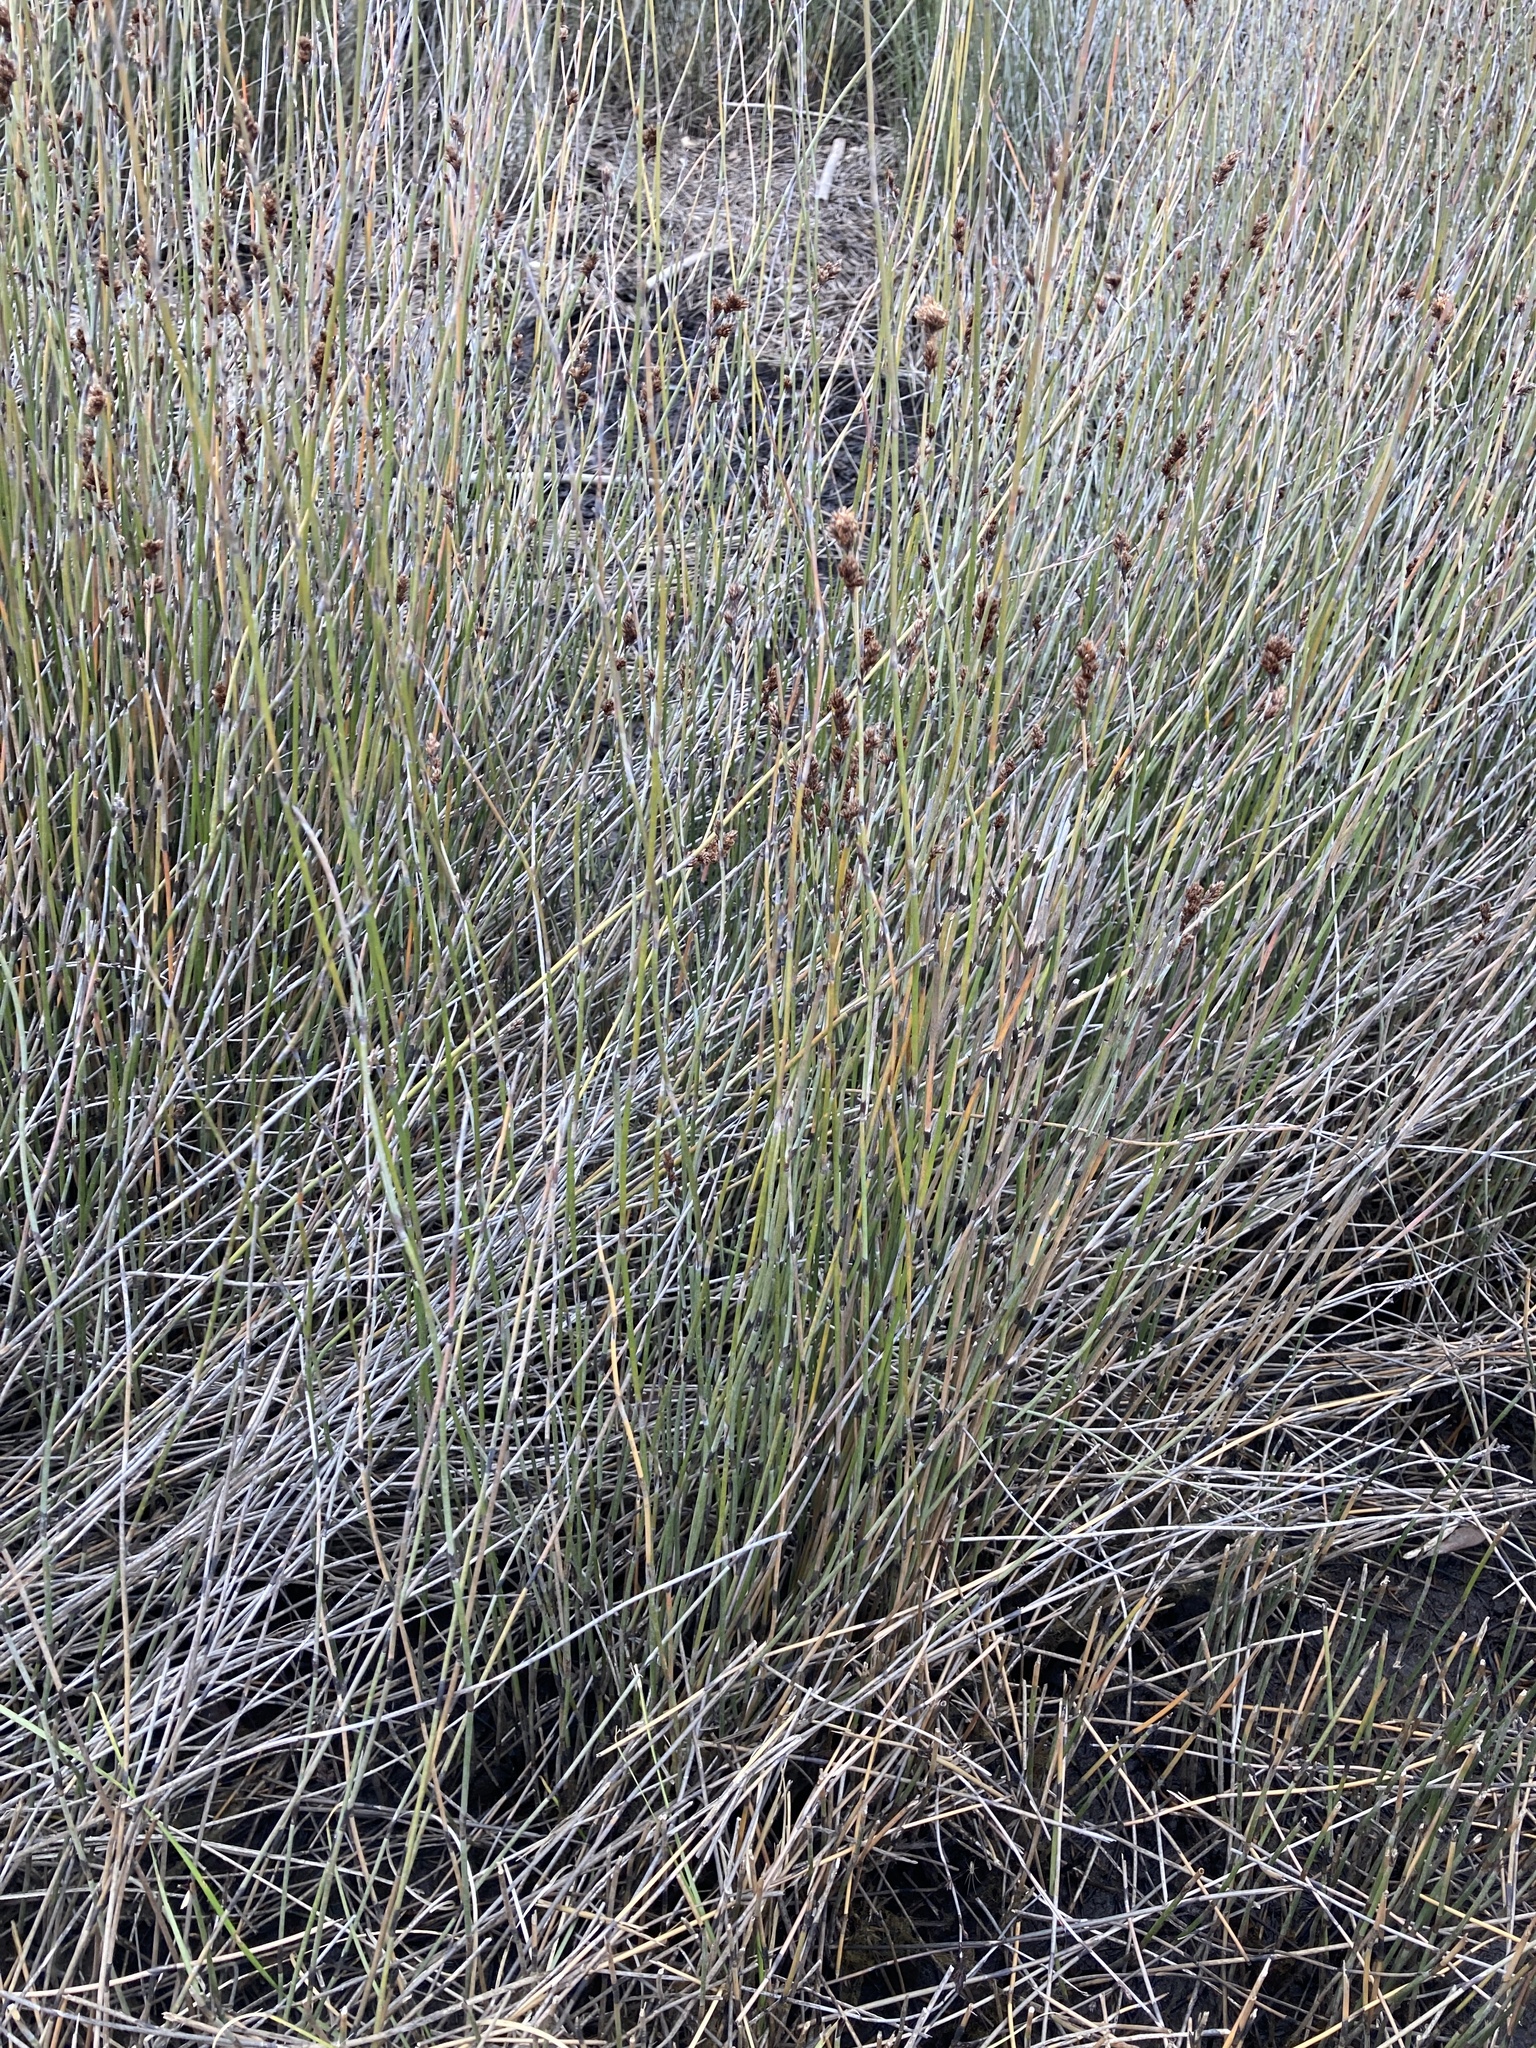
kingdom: Plantae
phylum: Tracheophyta
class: Liliopsida
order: Poales
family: Restionaceae
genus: Apodasmia
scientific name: Apodasmia similis
